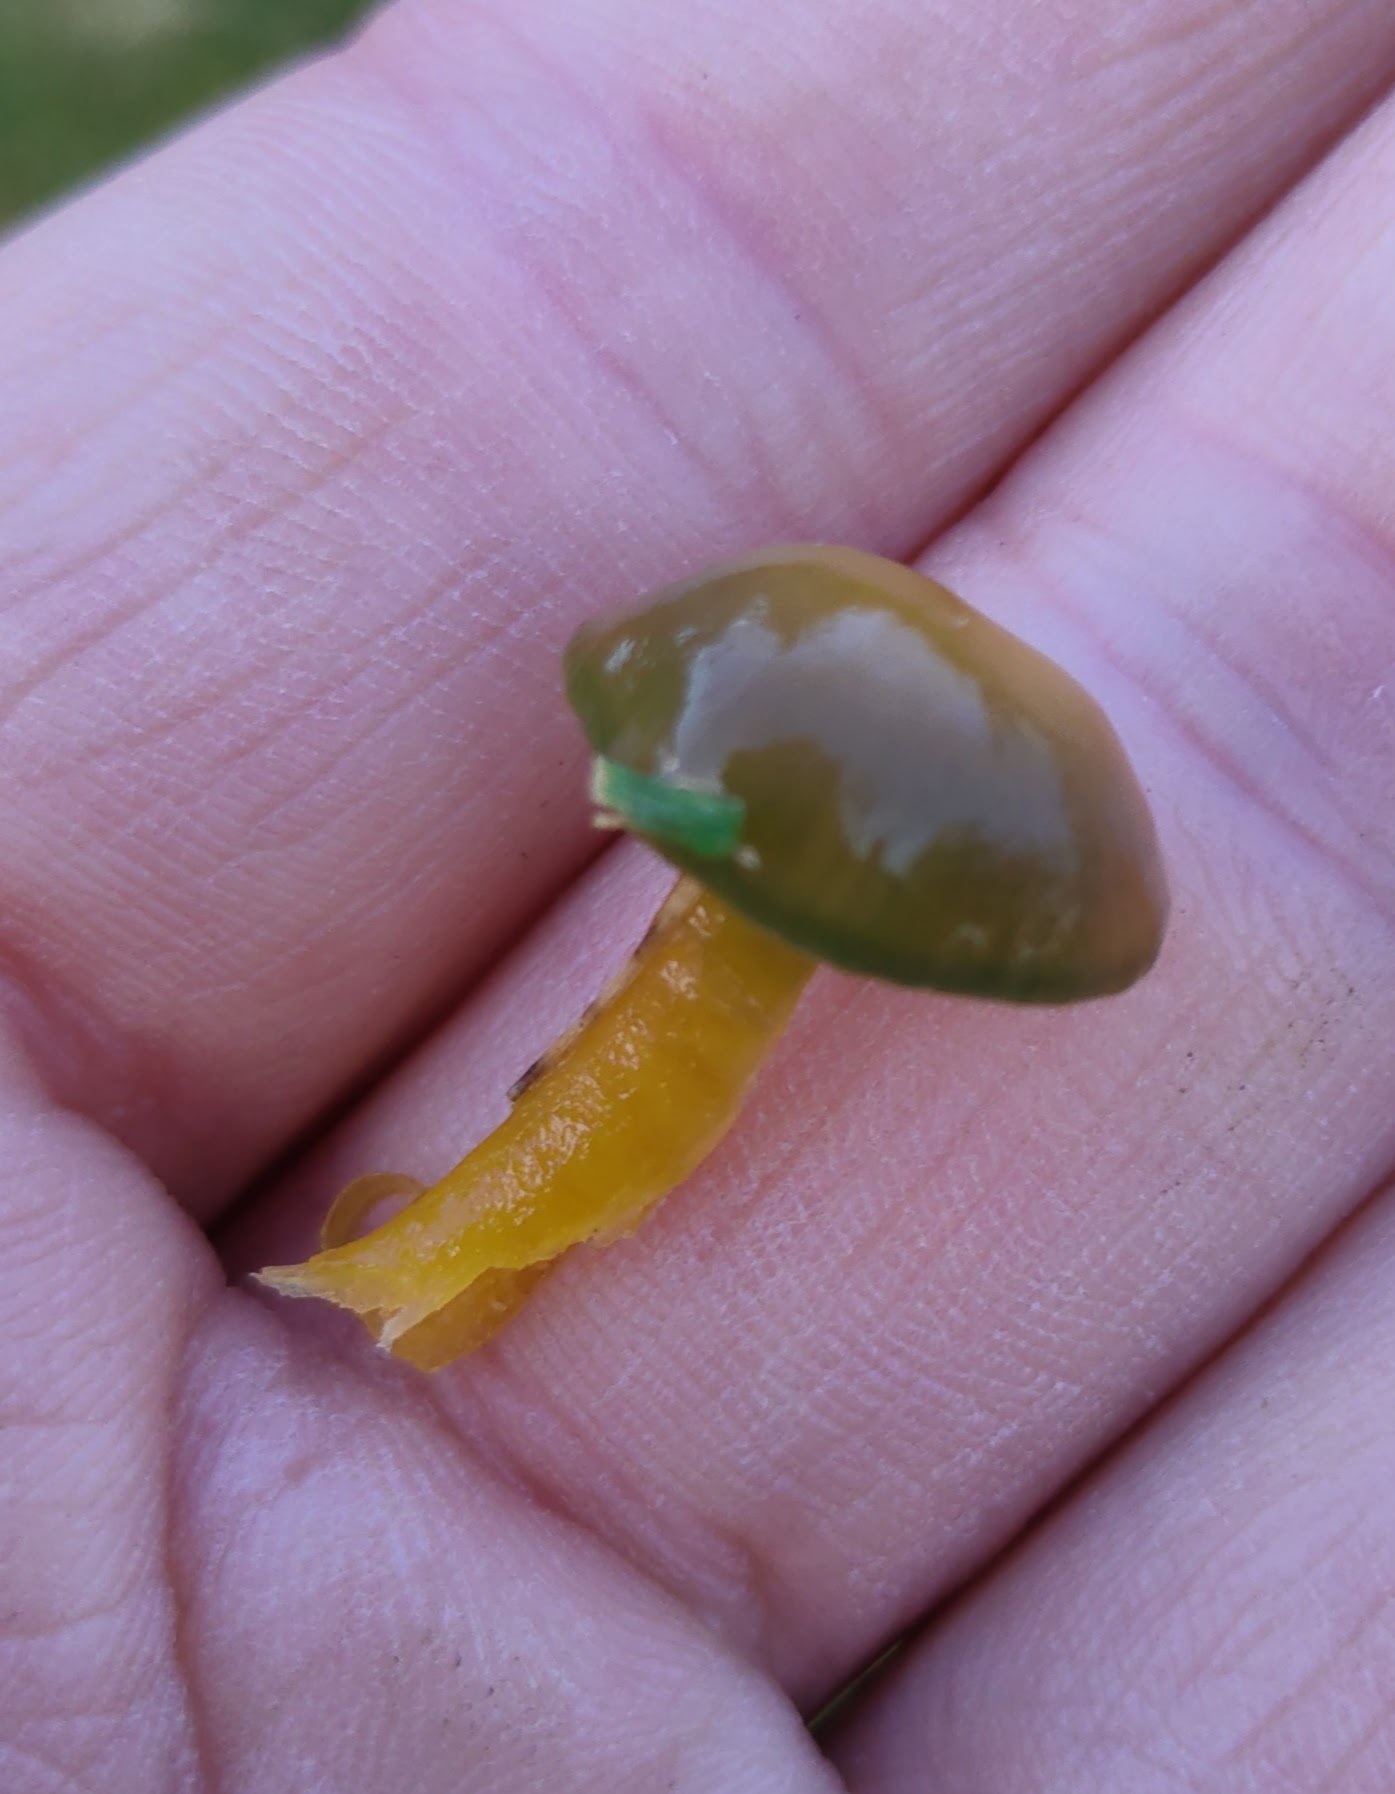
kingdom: Fungi
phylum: Basidiomycota
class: Agaricomycetes
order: Agaricales
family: Hygrophoraceae
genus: Gliophorus
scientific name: Gliophorus psittacinus
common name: Parrot wax-cap
